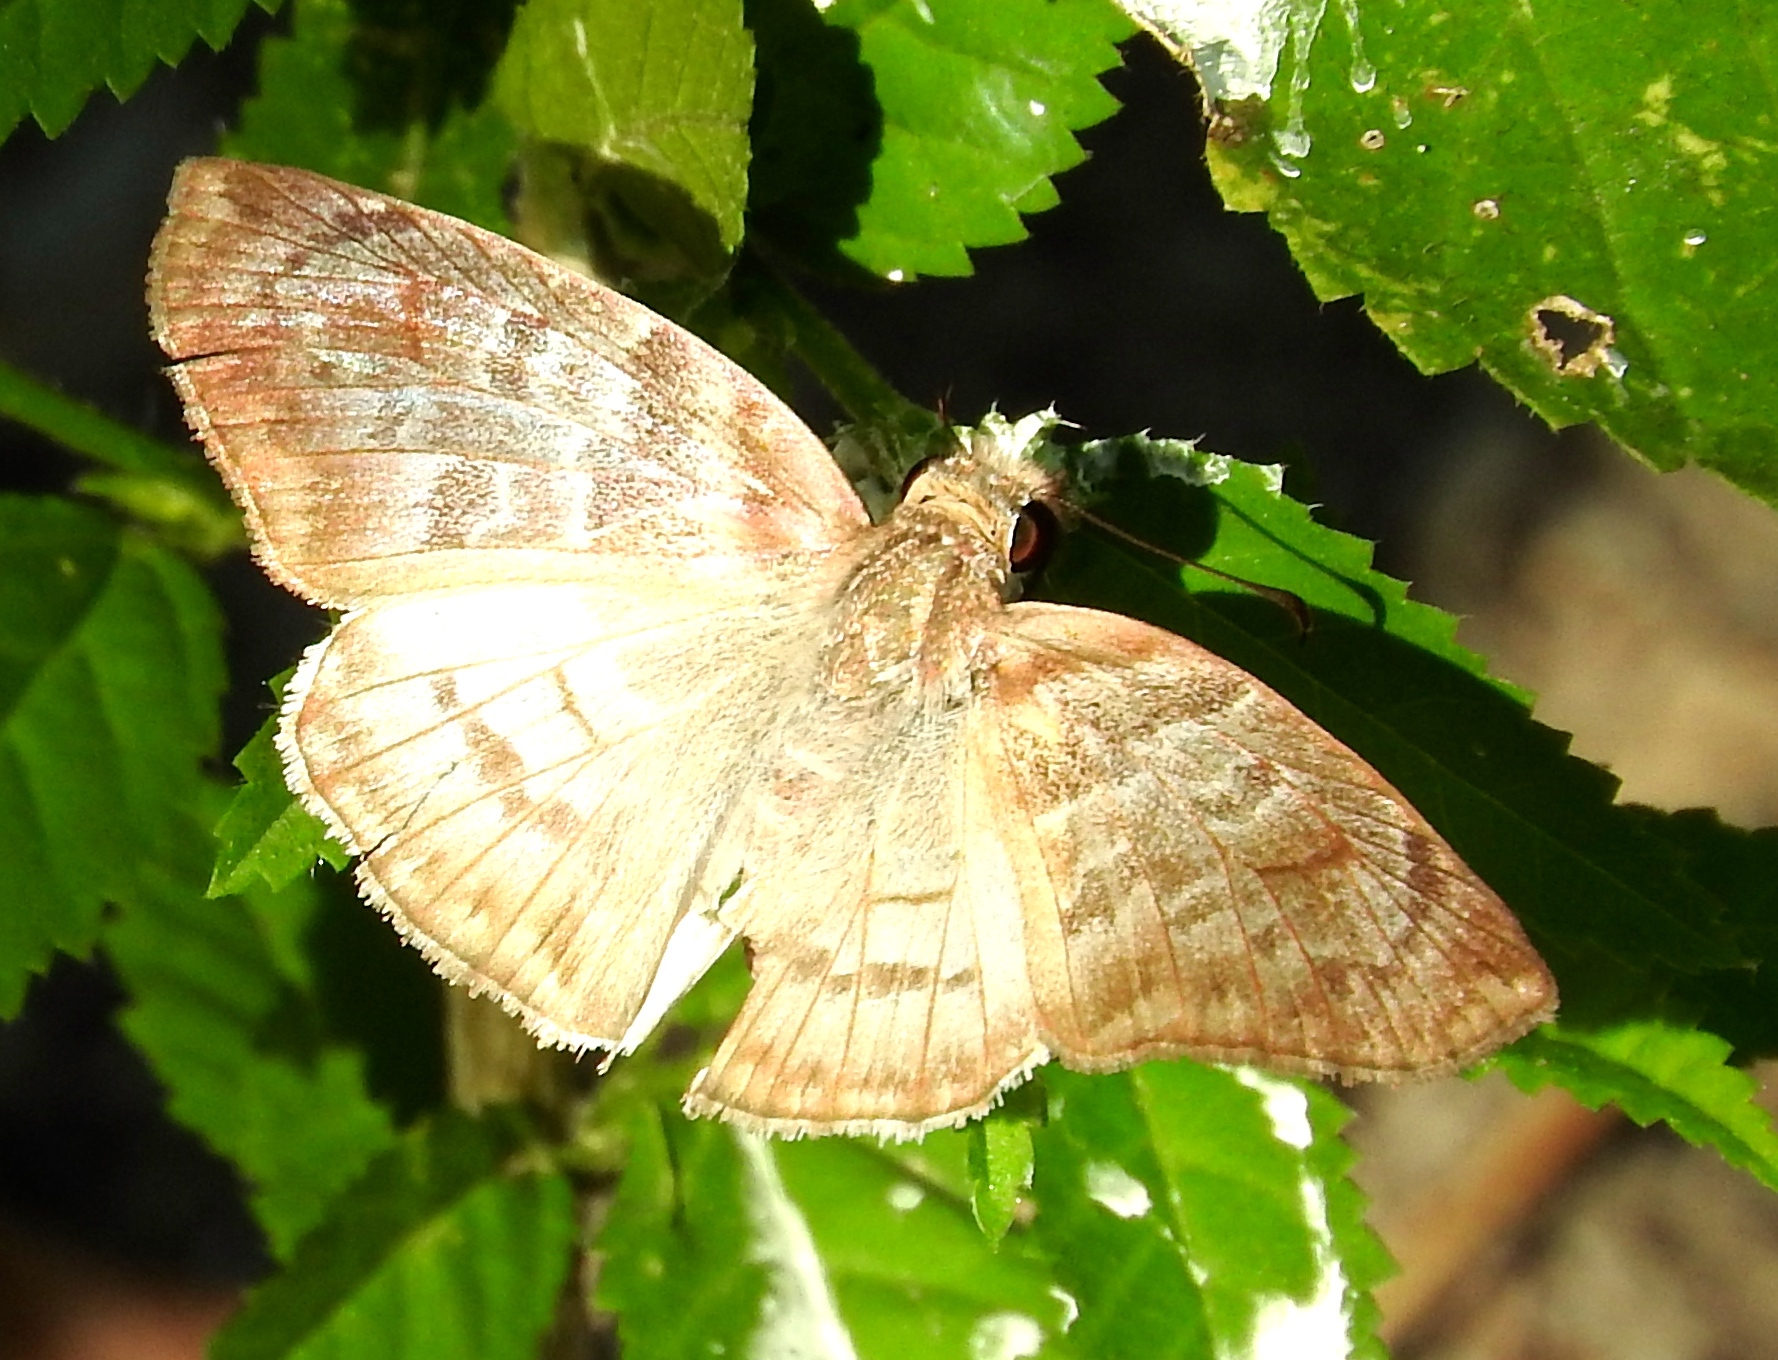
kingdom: Animalia
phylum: Arthropoda
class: Insecta
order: Lepidoptera
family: Hesperiidae
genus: Mylon
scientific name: Mylon pelopidas
